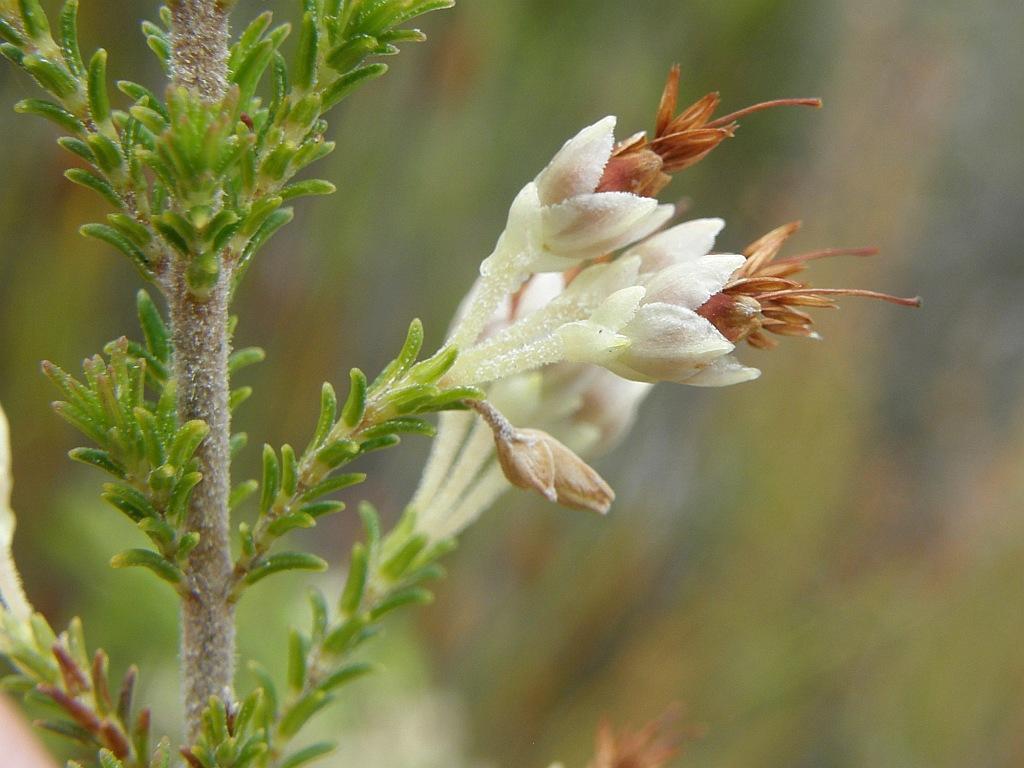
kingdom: Plantae
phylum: Tracheophyta
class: Magnoliopsida
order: Ericales
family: Ericaceae
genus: Erica
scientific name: Erica penicilliformis
